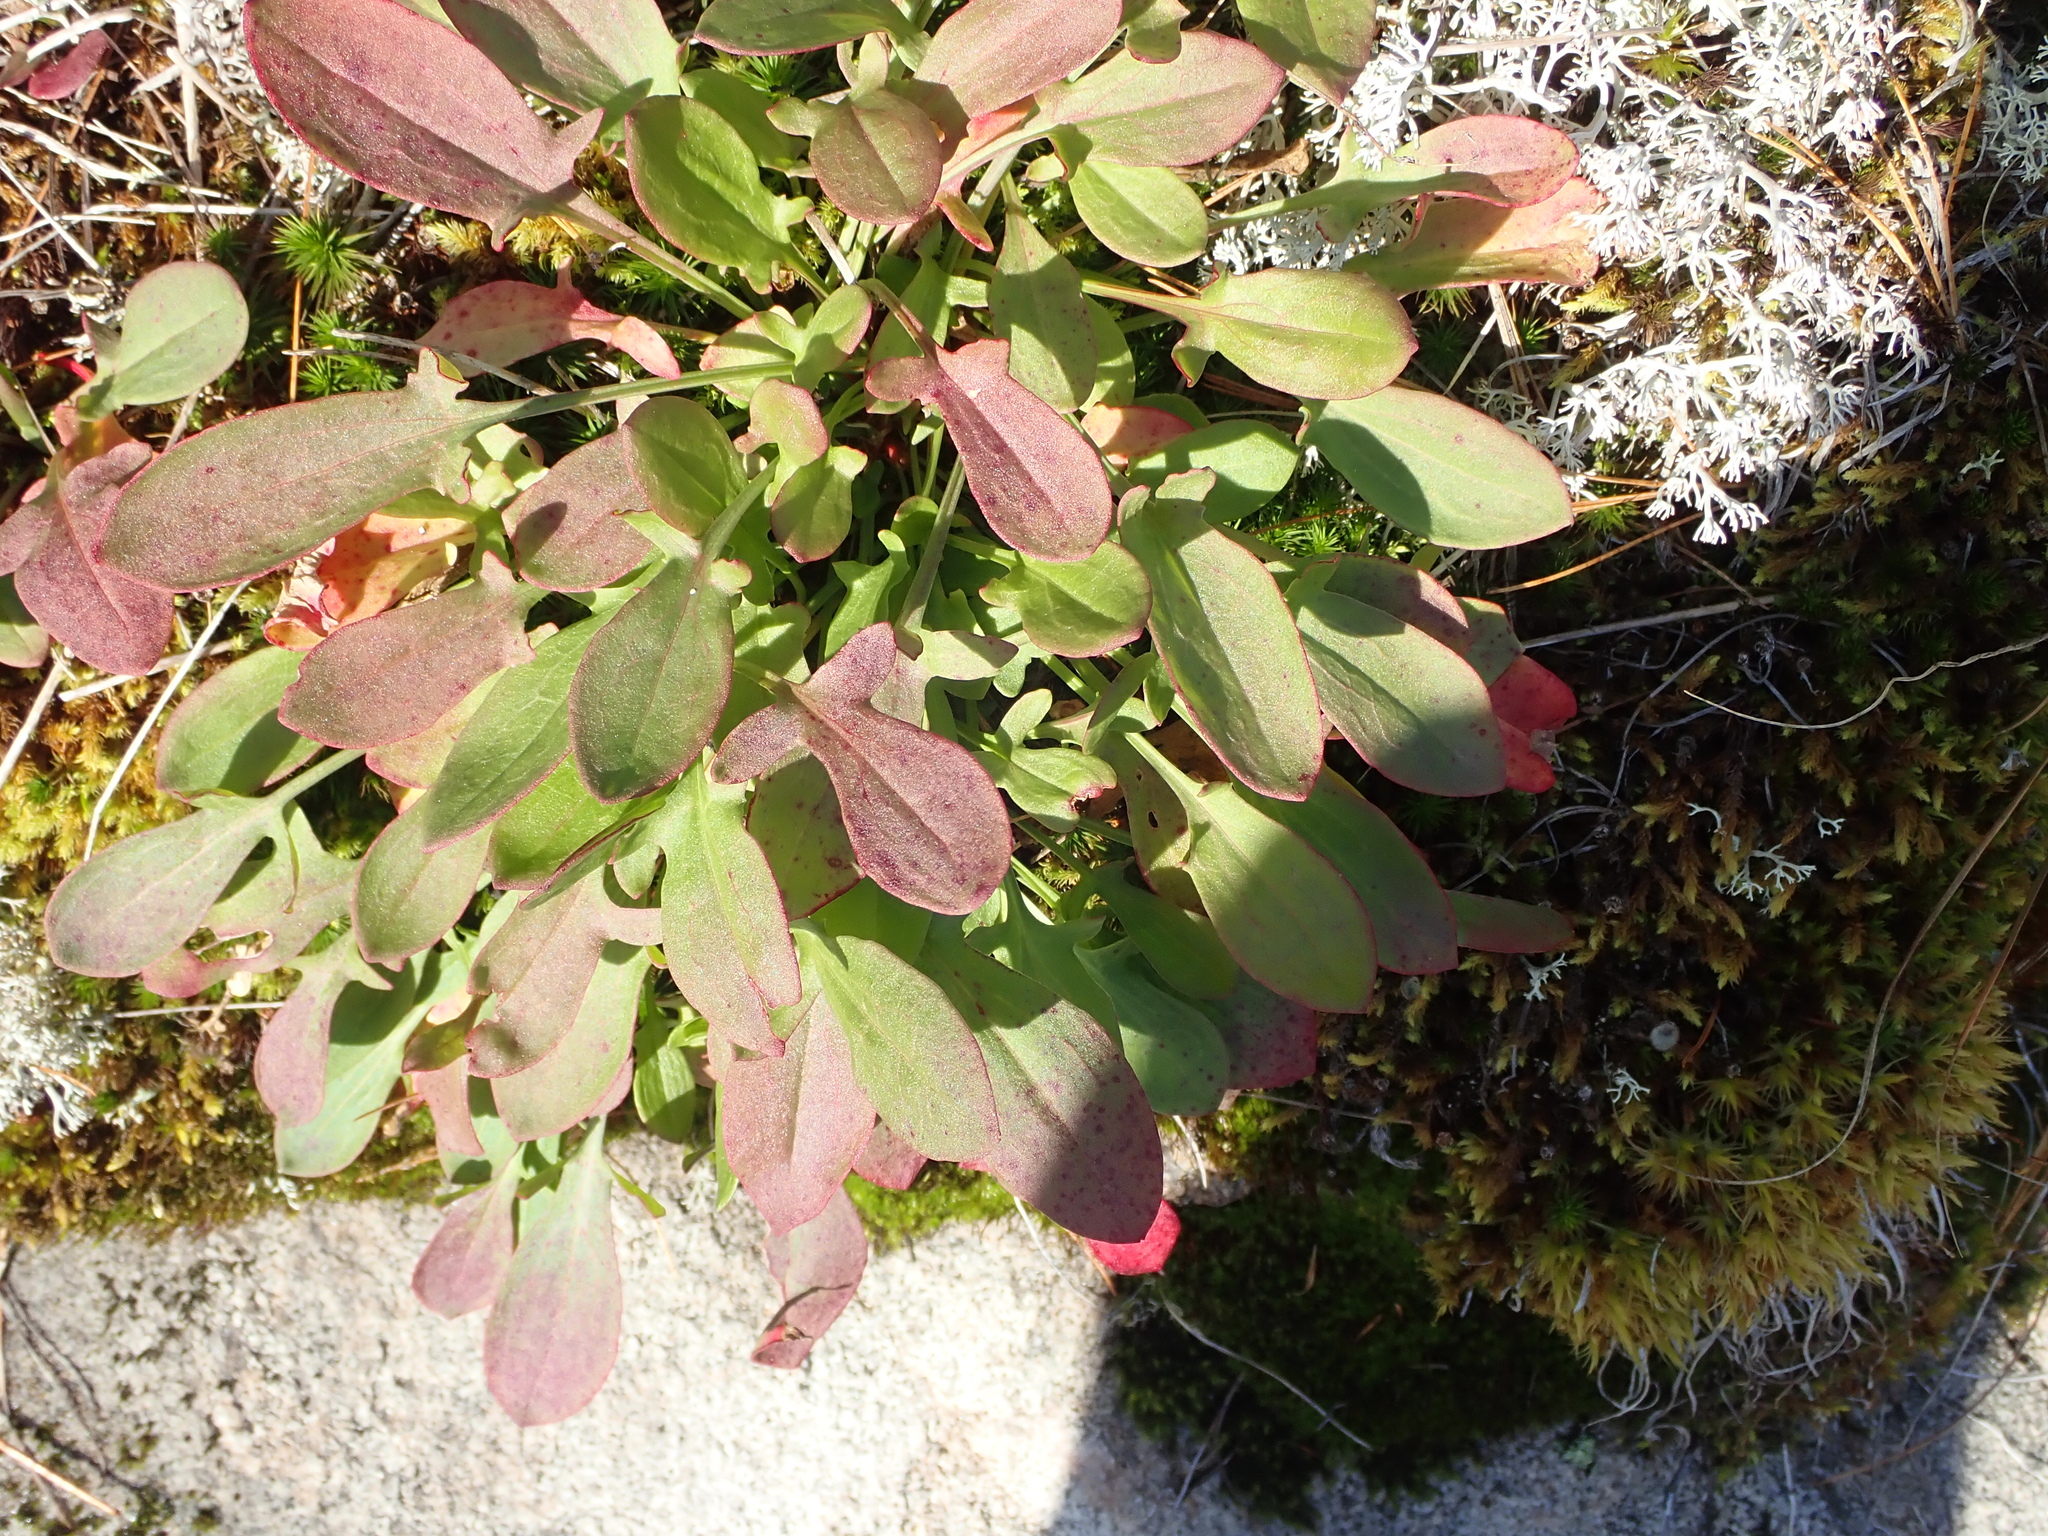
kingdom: Plantae
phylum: Tracheophyta
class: Magnoliopsida
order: Caryophyllales
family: Polygonaceae
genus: Rumex
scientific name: Rumex acetosella
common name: Common sheep sorrel
